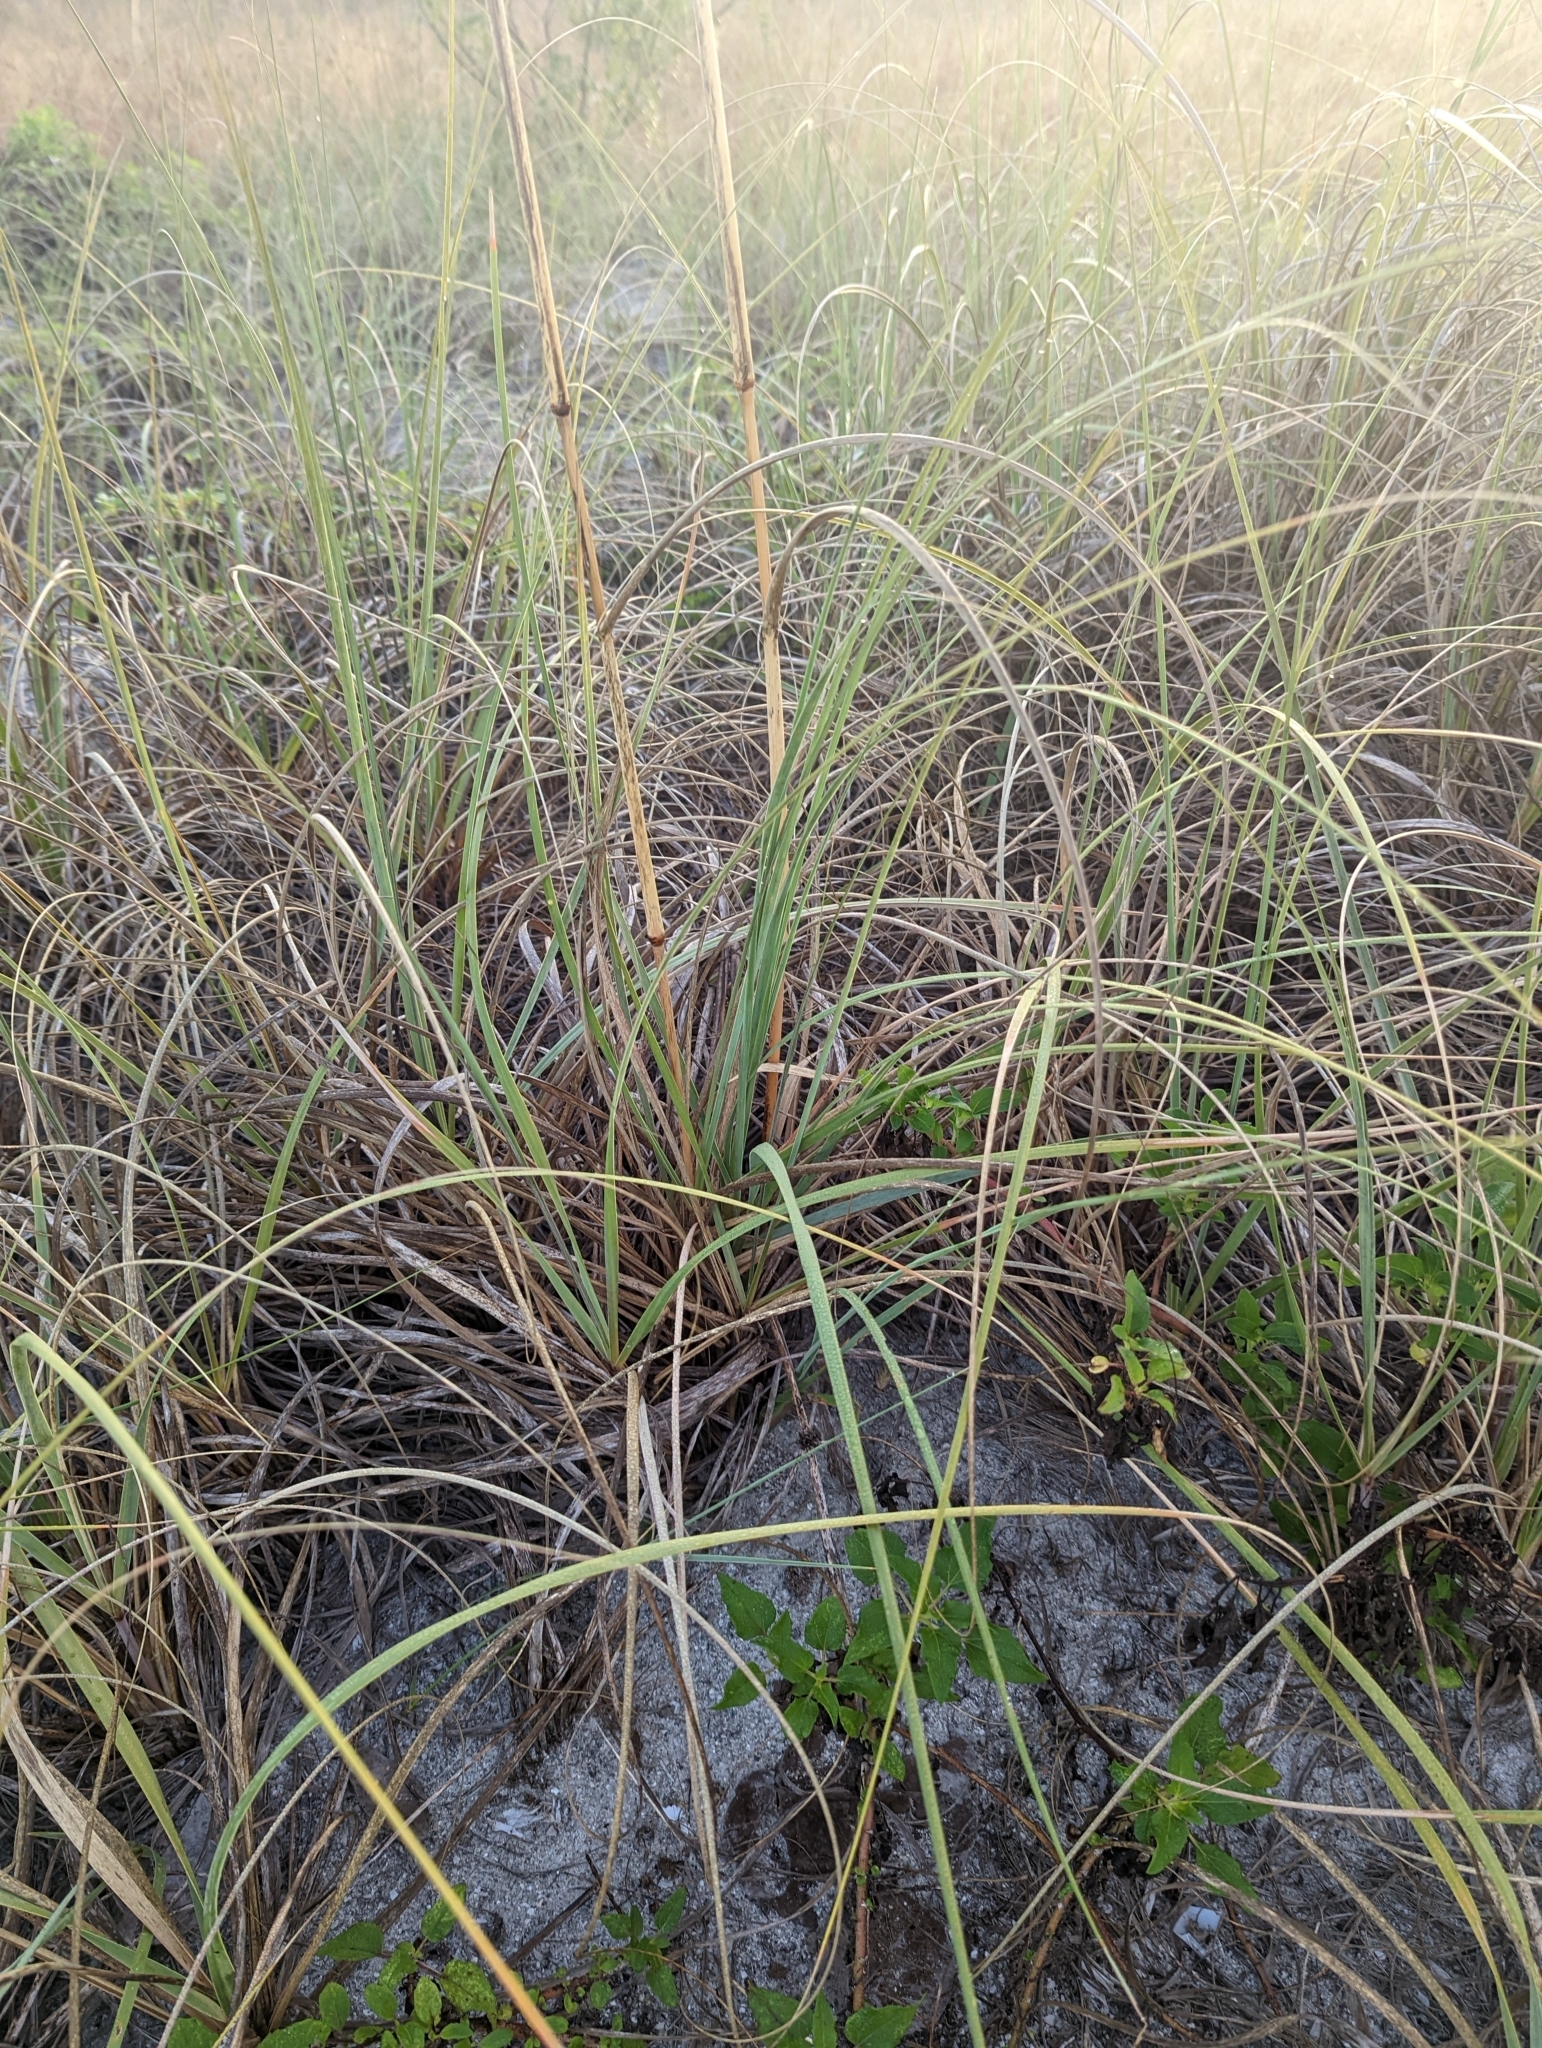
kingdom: Plantae
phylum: Tracheophyta
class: Liliopsida
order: Poales
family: Poaceae
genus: Uniola
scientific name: Uniola paniculata
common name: Seaside-oats
